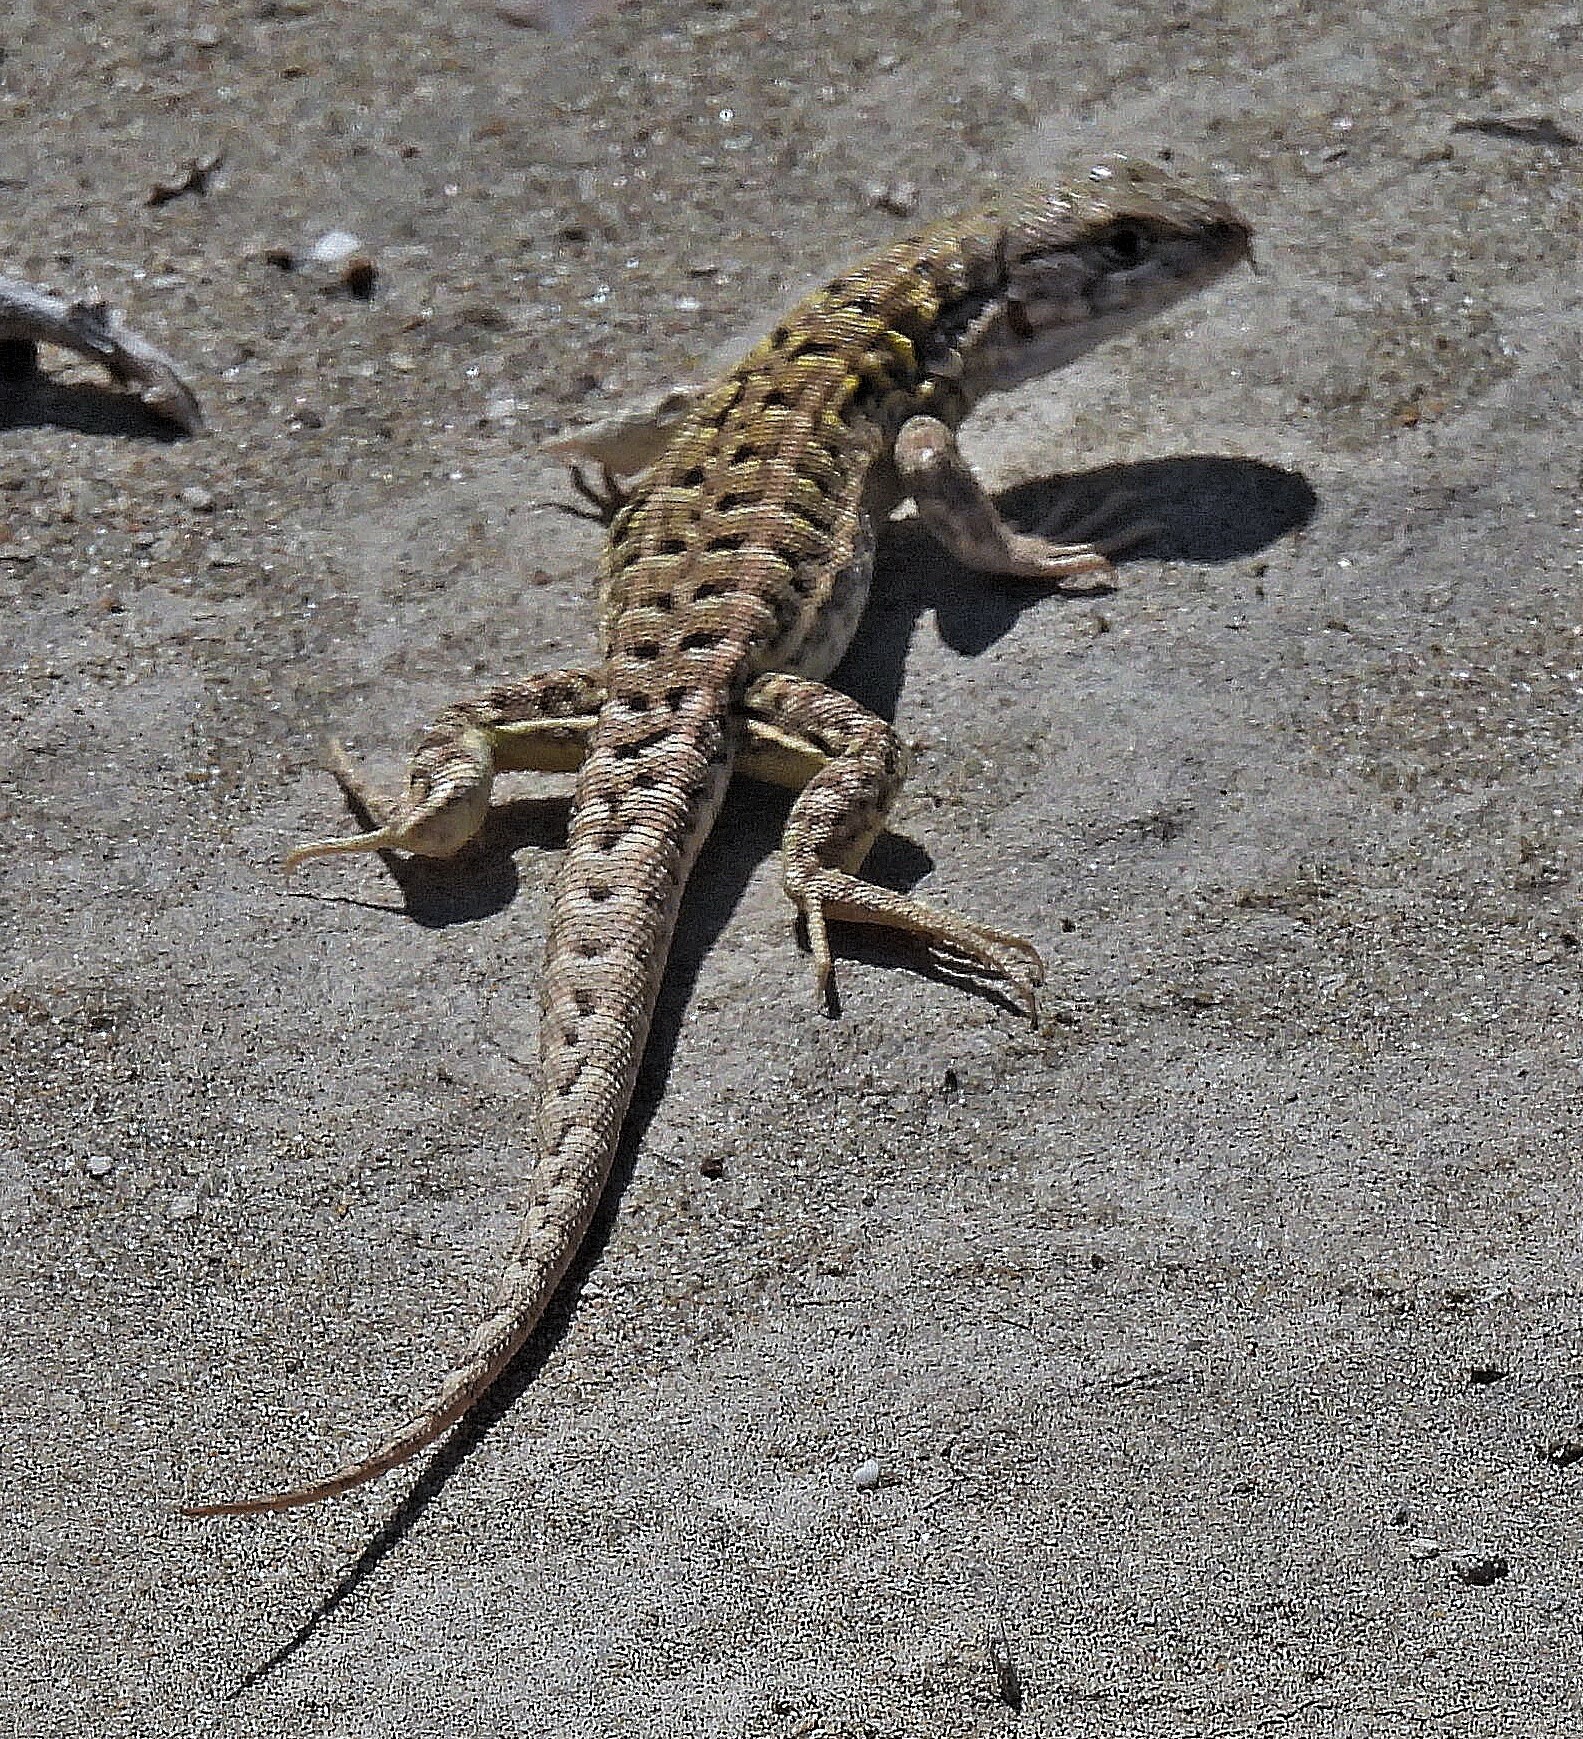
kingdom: Animalia
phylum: Chordata
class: Squamata
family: Liolaemidae
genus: Liolaemus
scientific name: Liolaemus melanops
